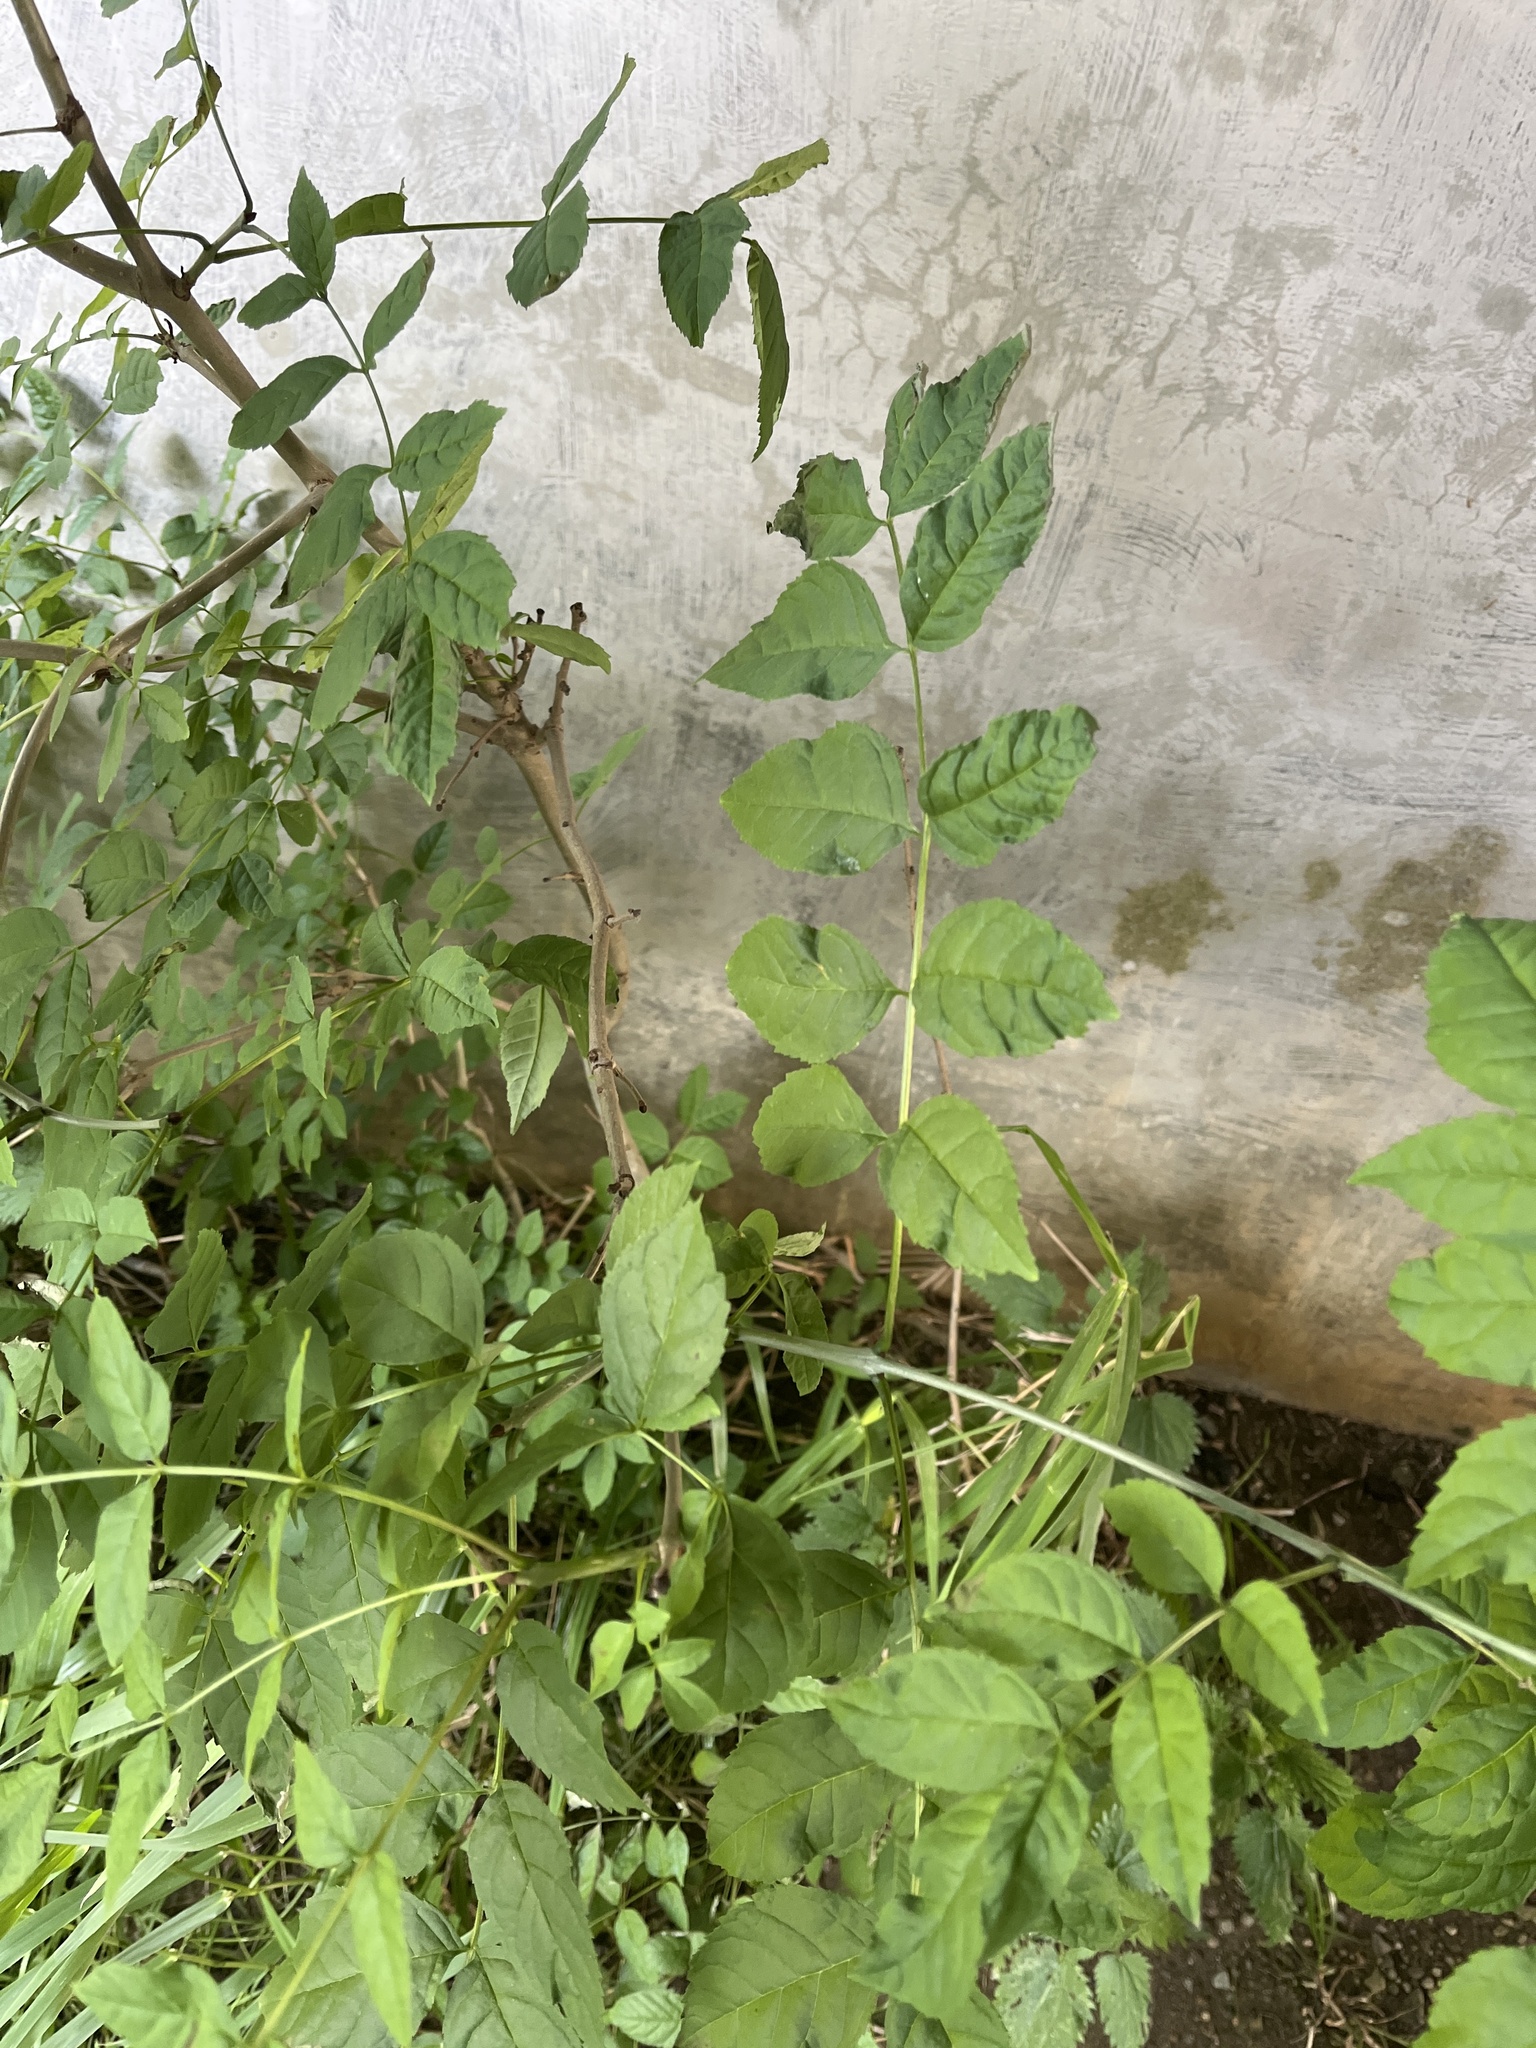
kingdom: Plantae
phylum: Tracheophyta
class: Magnoliopsida
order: Lamiales
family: Oleaceae
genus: Fraxinus
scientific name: Fraxinus excelsior
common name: European ash
